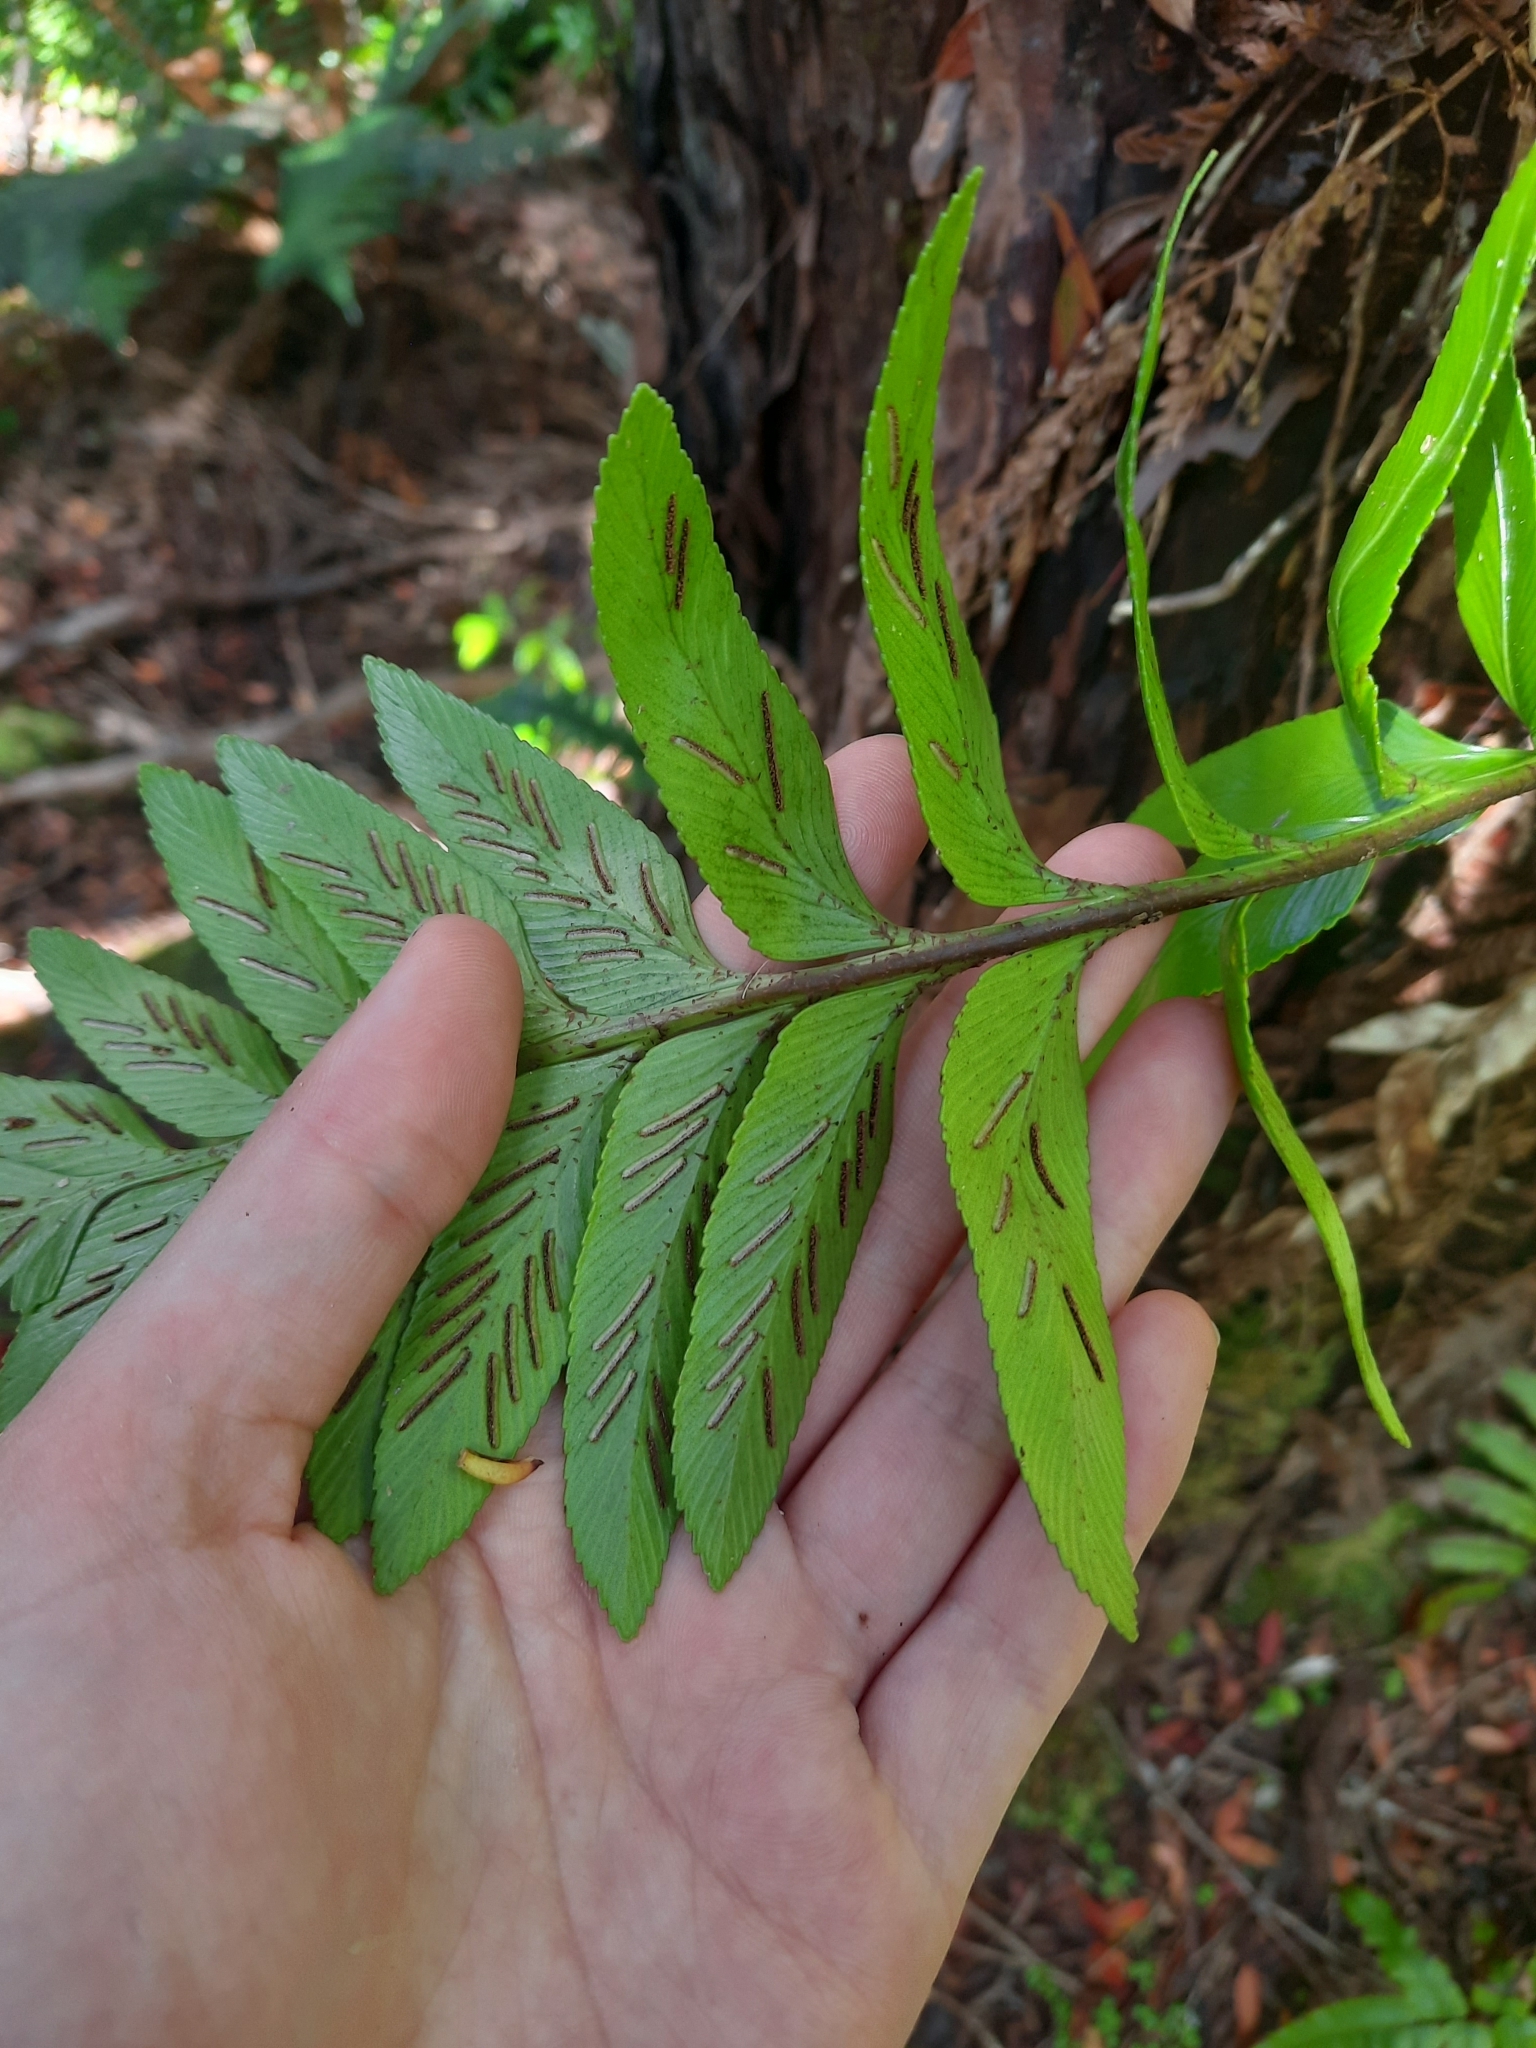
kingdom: Plantae
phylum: Tracheophyta
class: Polypodiopsida
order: Polypodiales
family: Aspleniaceae
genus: Asplenium
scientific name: Asplenium obtusatum
